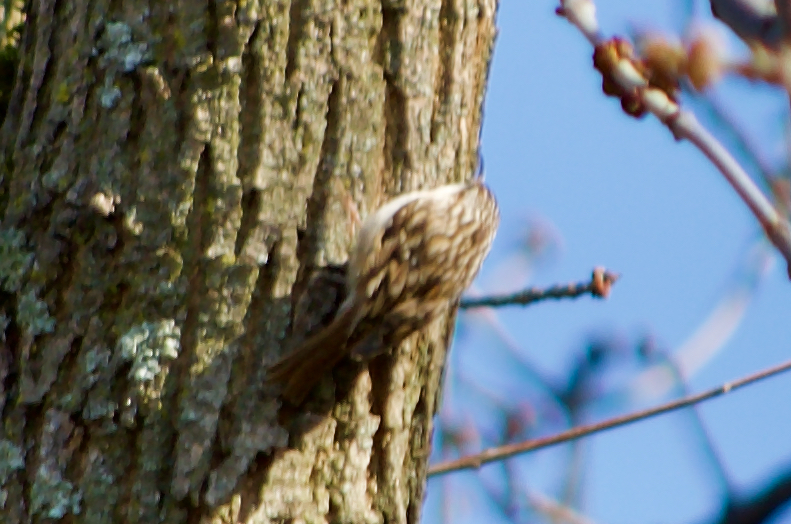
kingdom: Animalia
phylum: Chordata
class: Aves
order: Passeriformes
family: Certhiidae
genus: Certhia
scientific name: Certhia brachydactyla
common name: Short-toed treecreeper
